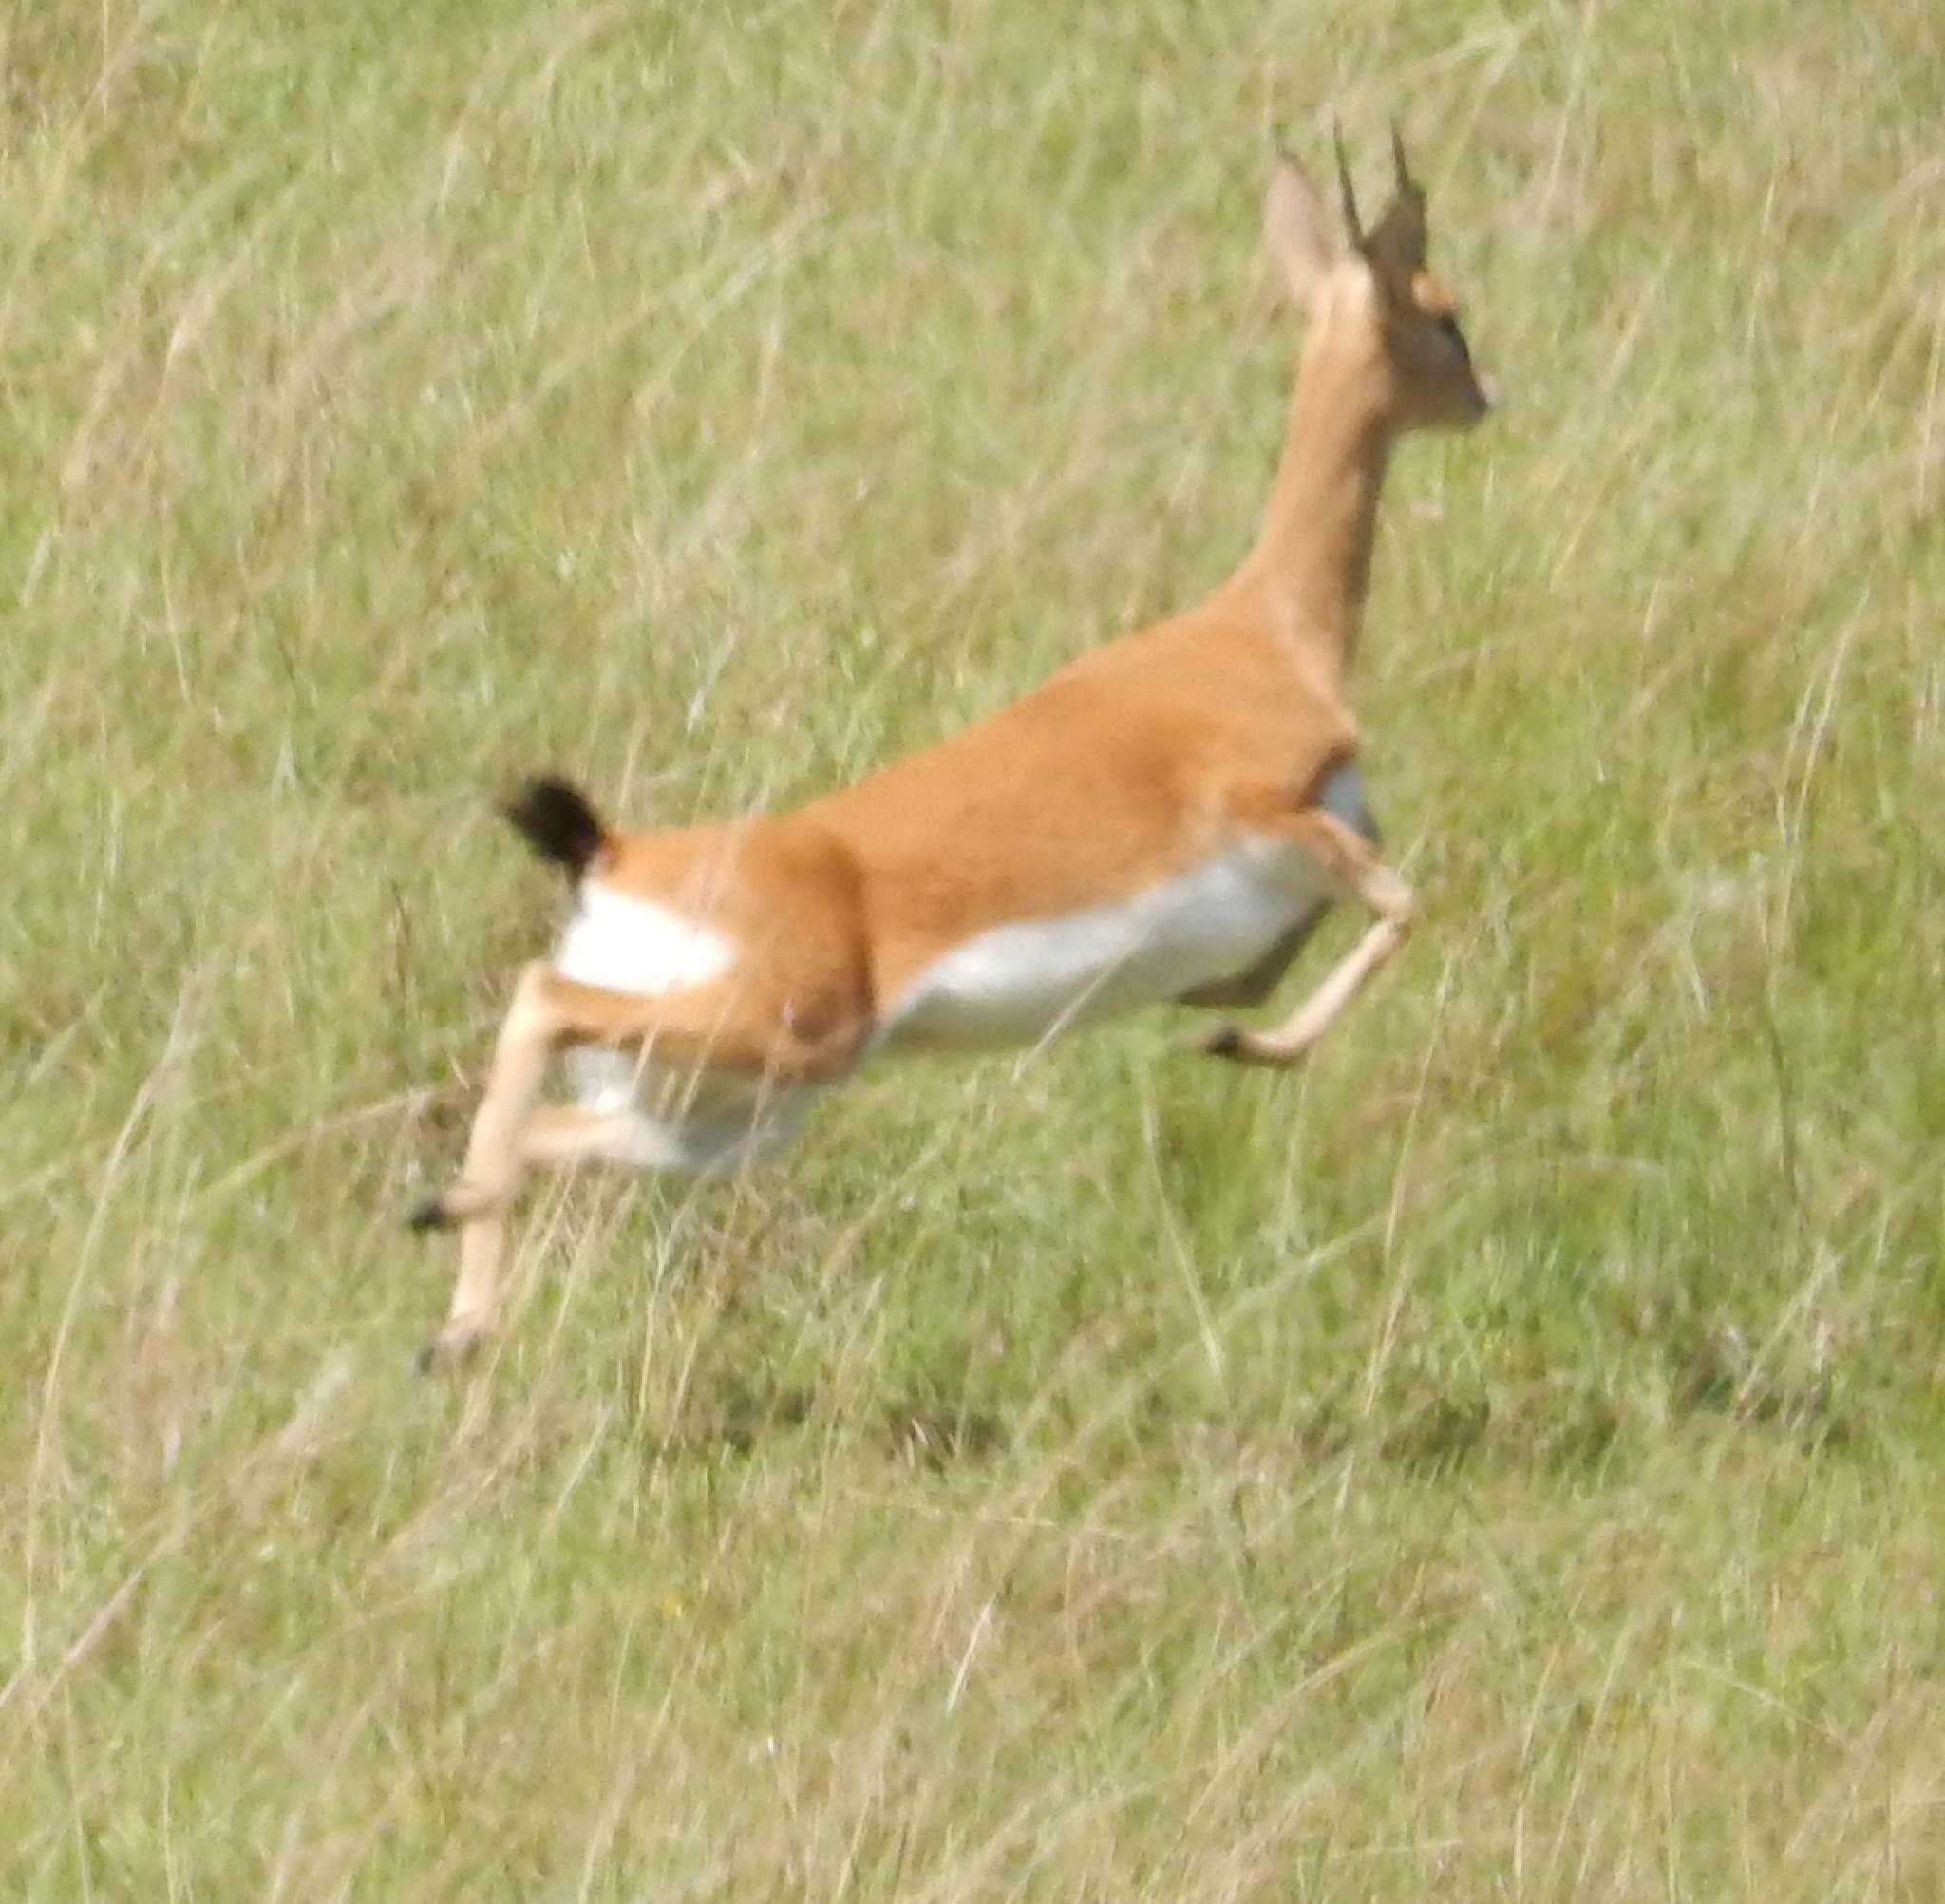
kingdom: Animalia
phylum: Chordata
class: Mammalia
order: Artiodactyla
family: Bovidae
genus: Ourebia
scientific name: Ourebia ourebi
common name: Oribi
